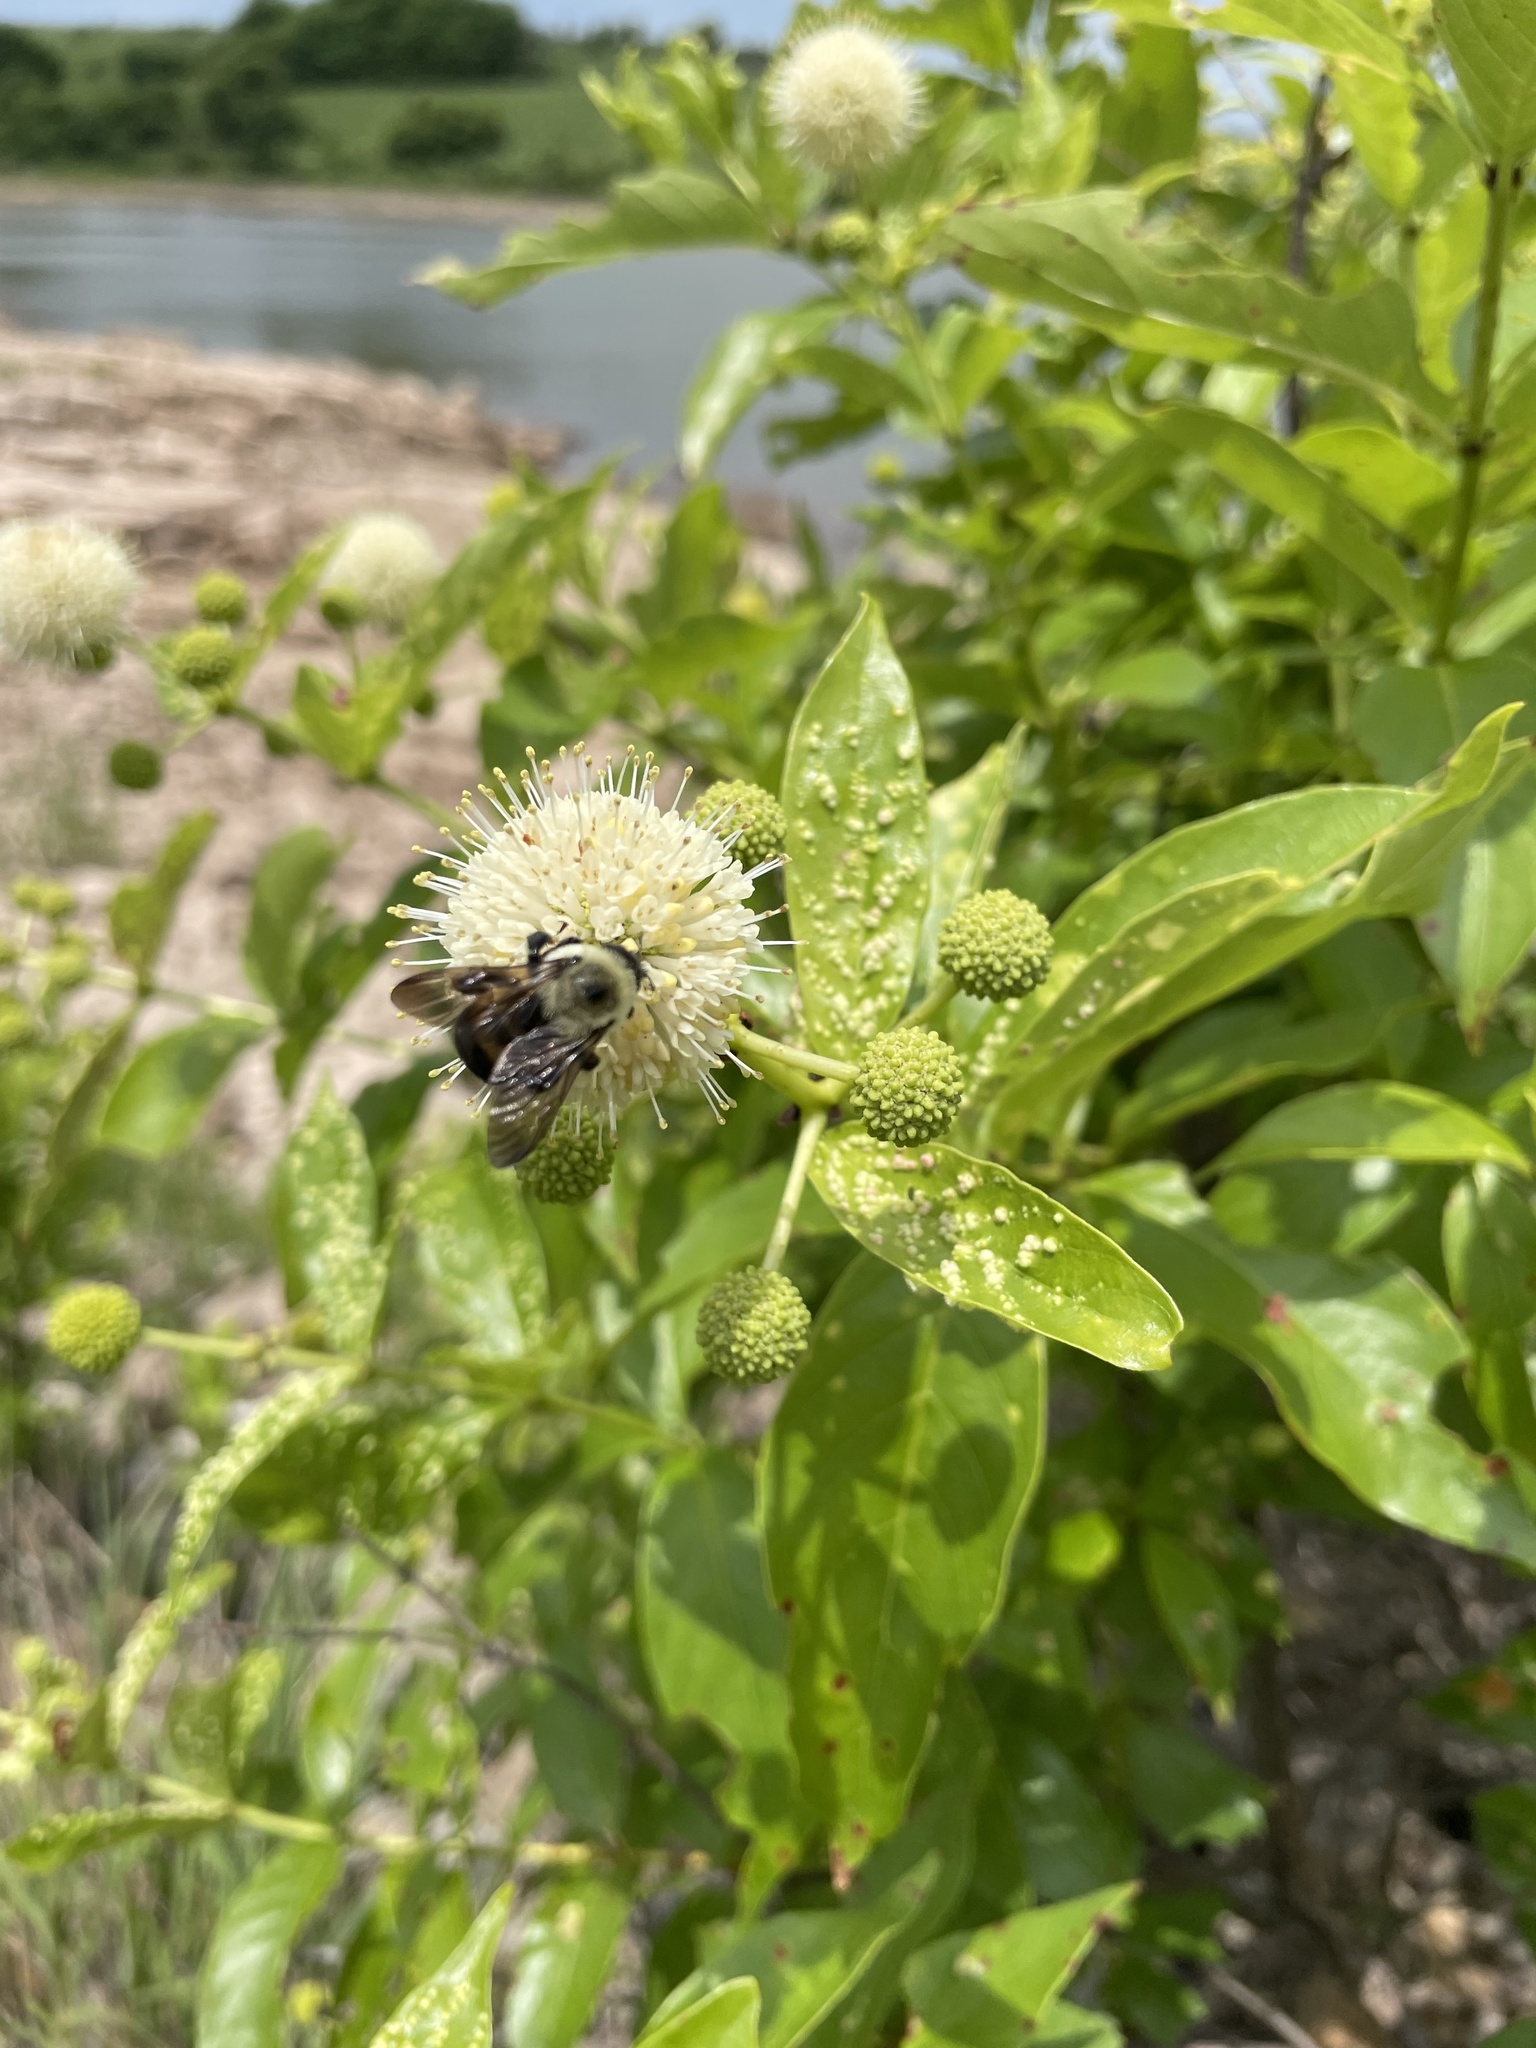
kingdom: Animalia
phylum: Arthropoda
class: Insecta
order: Hymenoptera
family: Apidae
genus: Bombus
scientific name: Bombus griseocollis
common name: Brown-belted bumble bee
